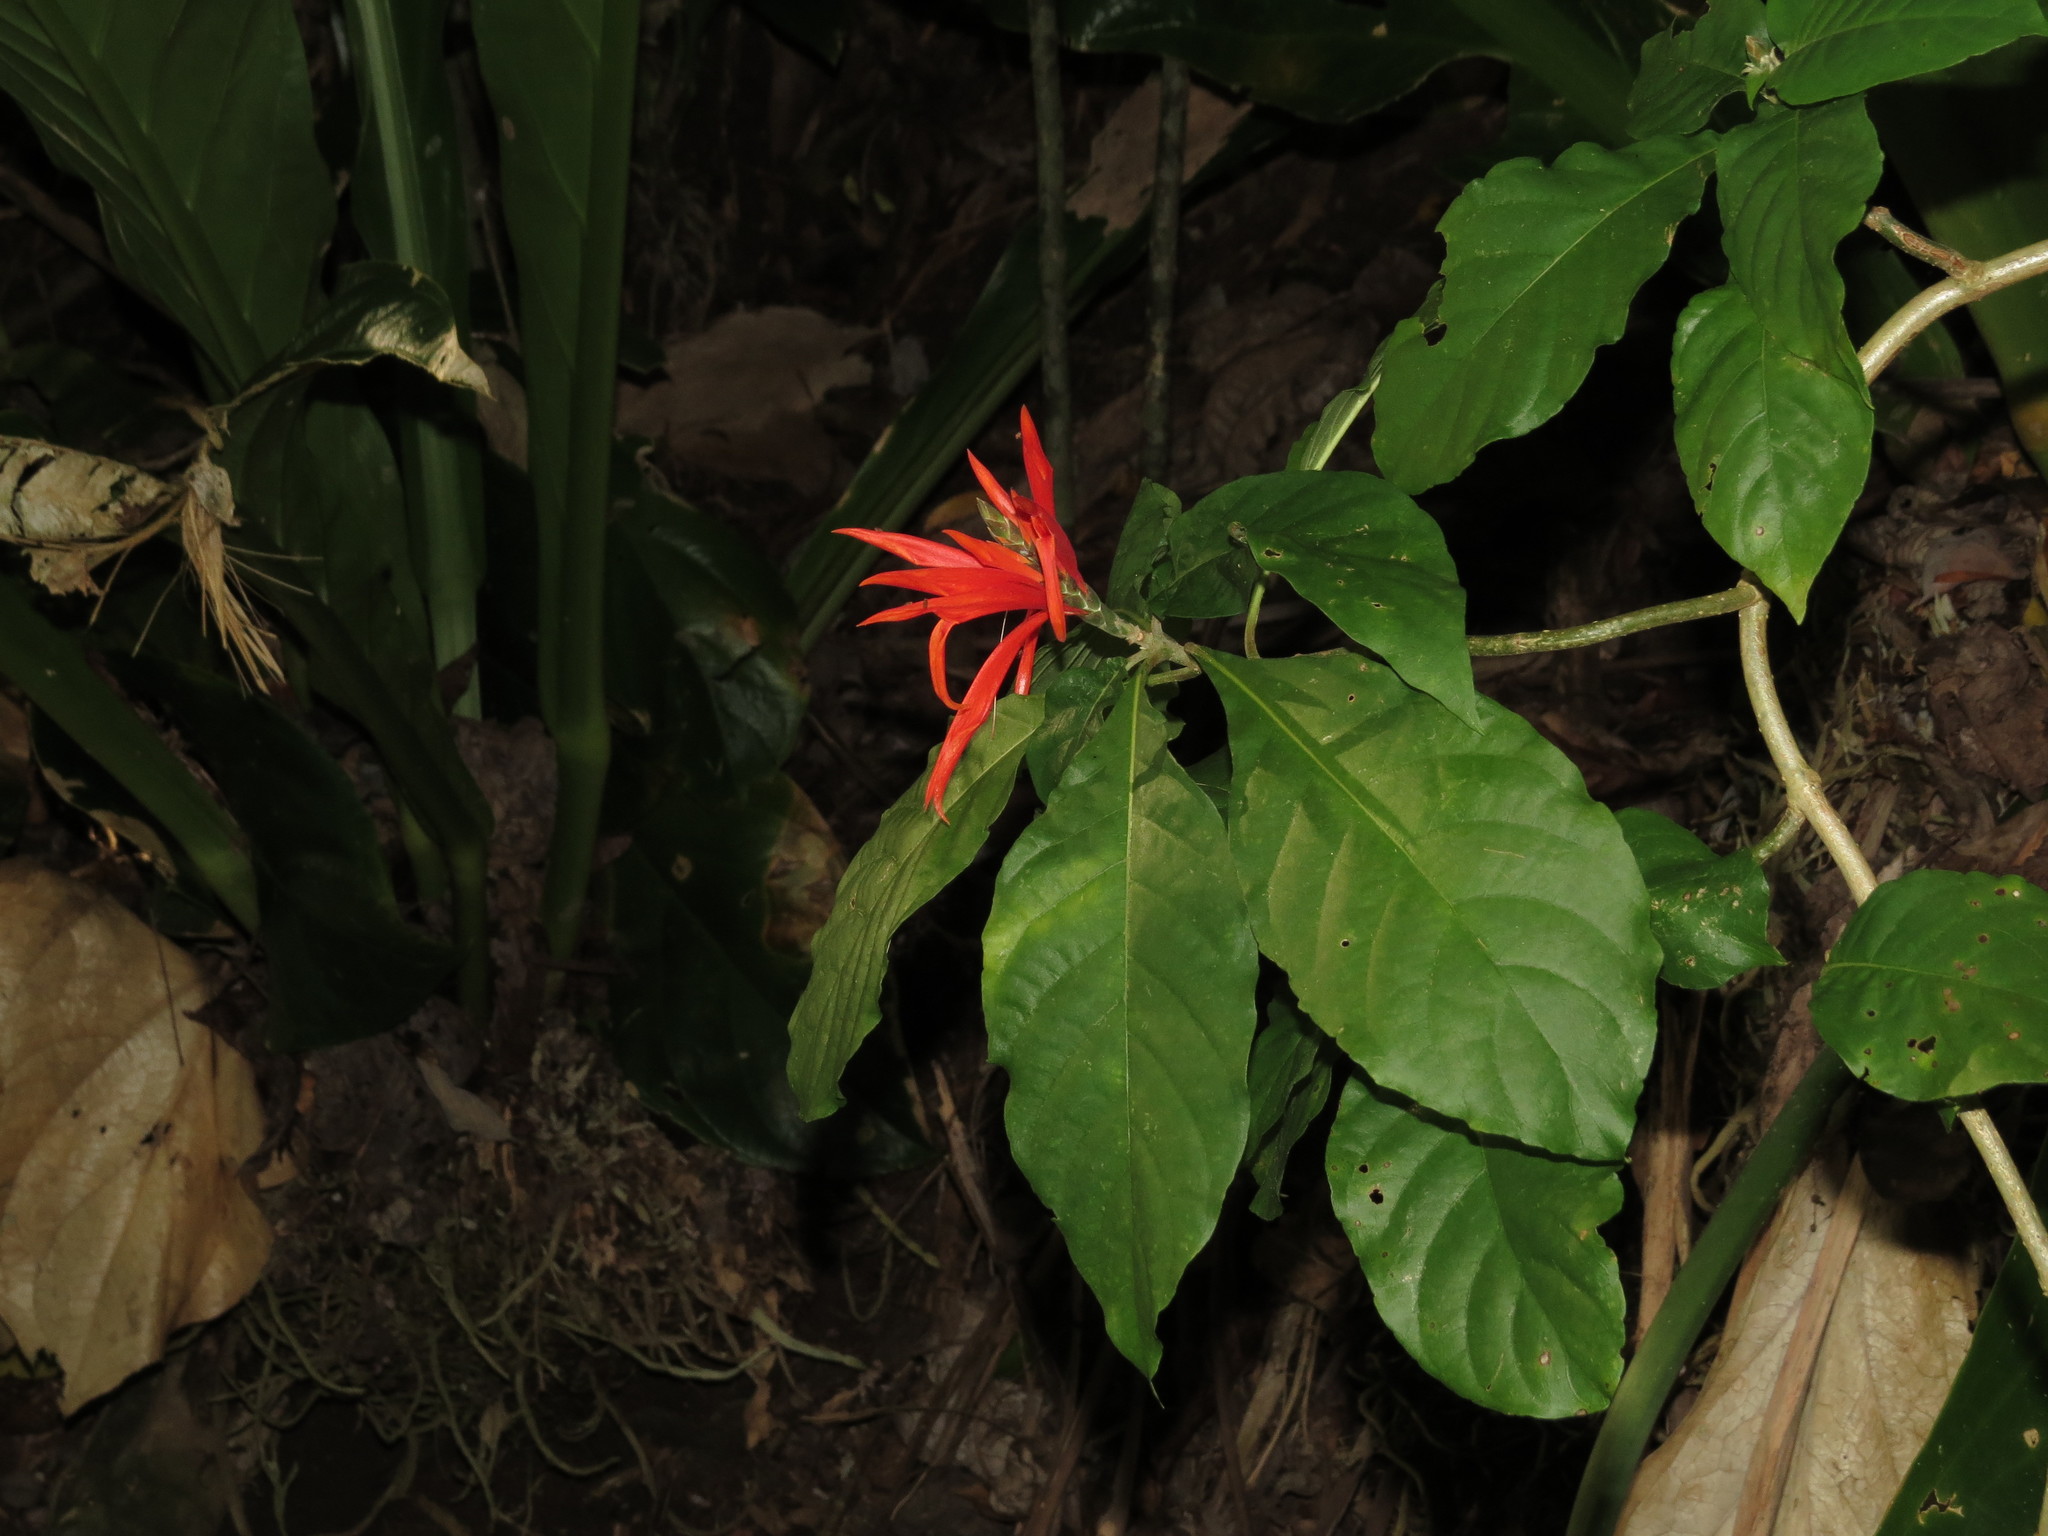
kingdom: Plantae
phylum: Tracheophyta
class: Magnoliopsida
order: Lamiales
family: Acanthaceae
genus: Aphelandra
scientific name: Aphelandra pulcherrima
